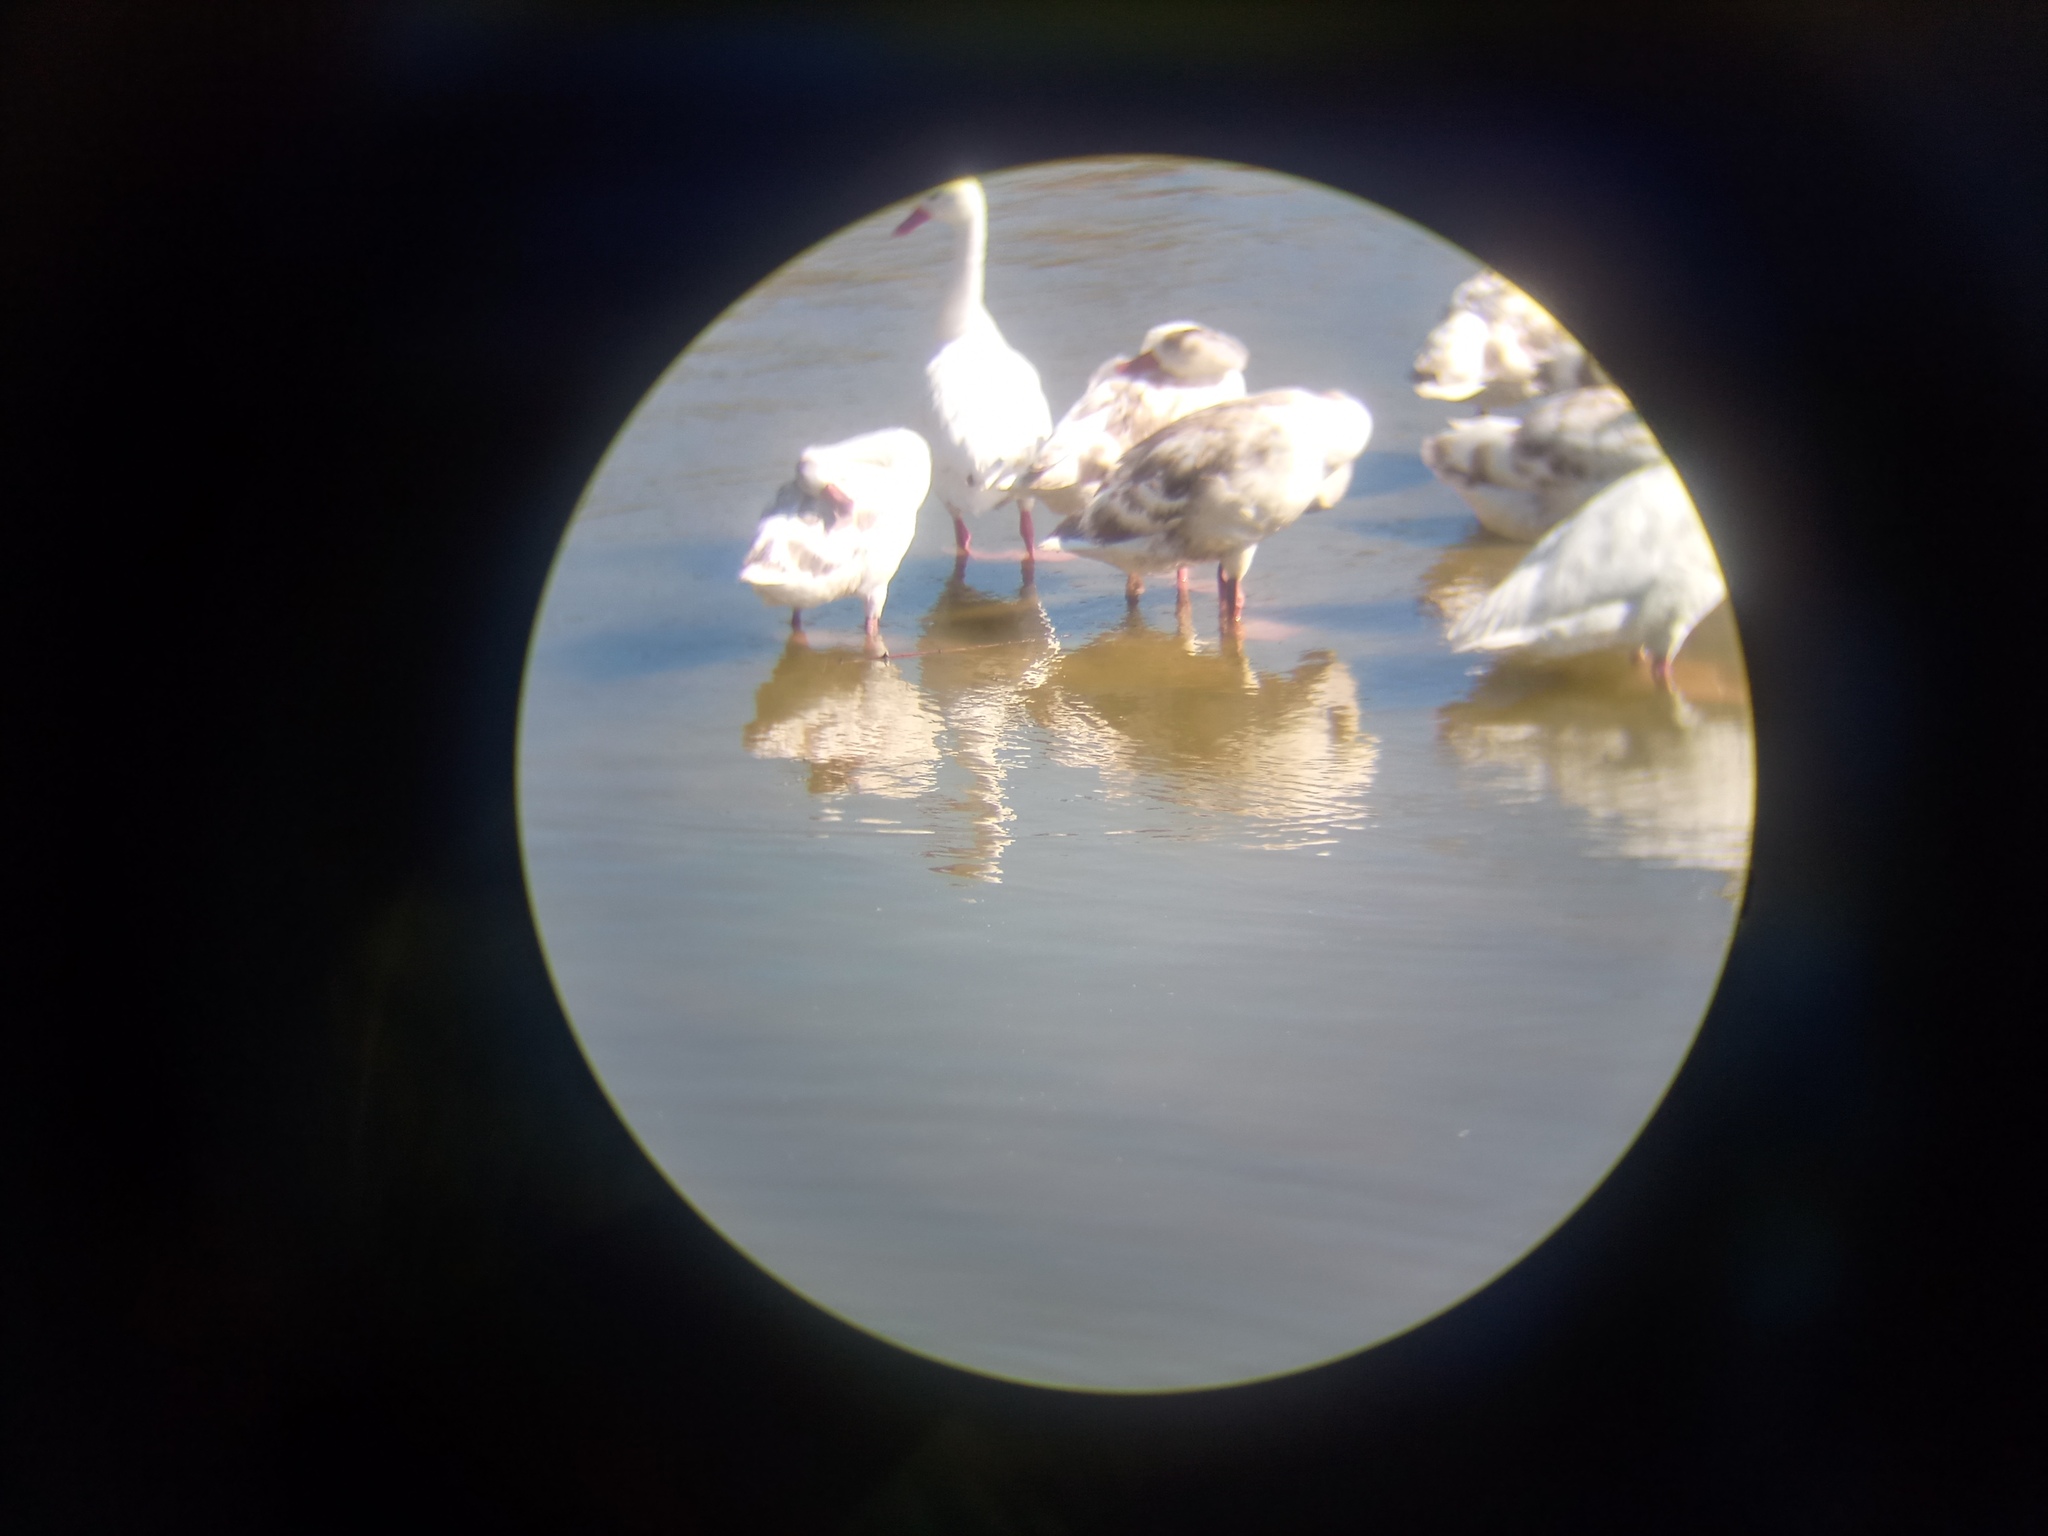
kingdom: Animalia
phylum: Chordata
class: Aves
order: Anseriformes
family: Anatidae
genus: Coscoroba
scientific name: Coscoroba coscoroba
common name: Coscoroba swan
